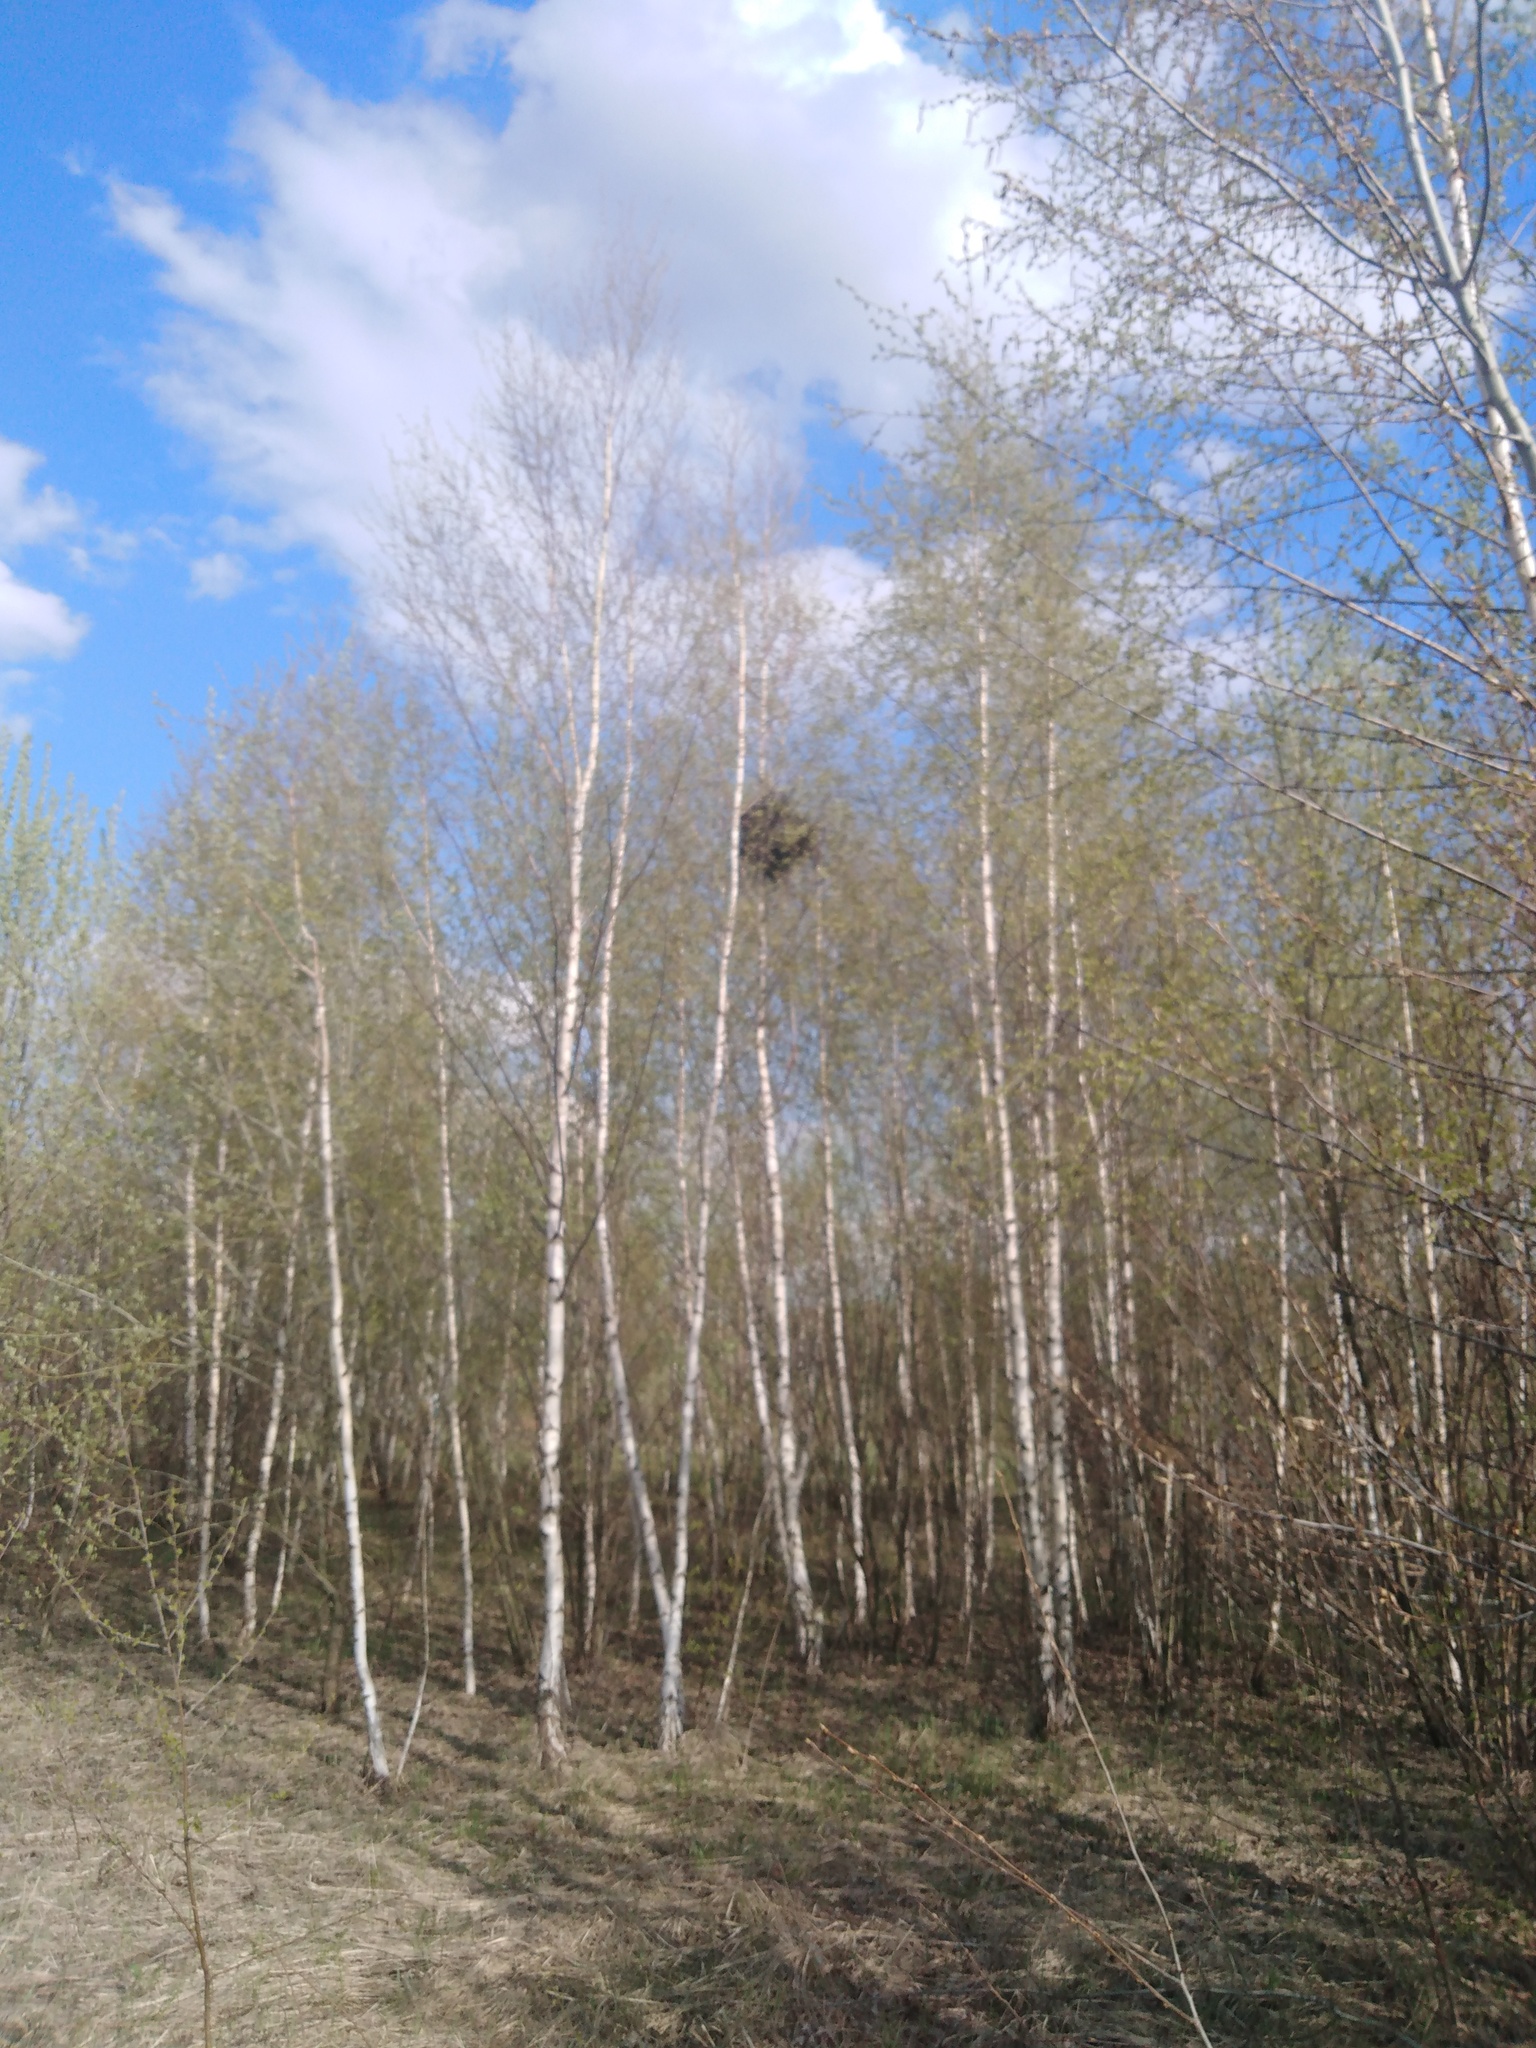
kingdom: Animalia
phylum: Chordata
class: Aves
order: Passeriformes
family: Corvidae
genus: Pica
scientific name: Pica pica
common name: Eurasian magpie
